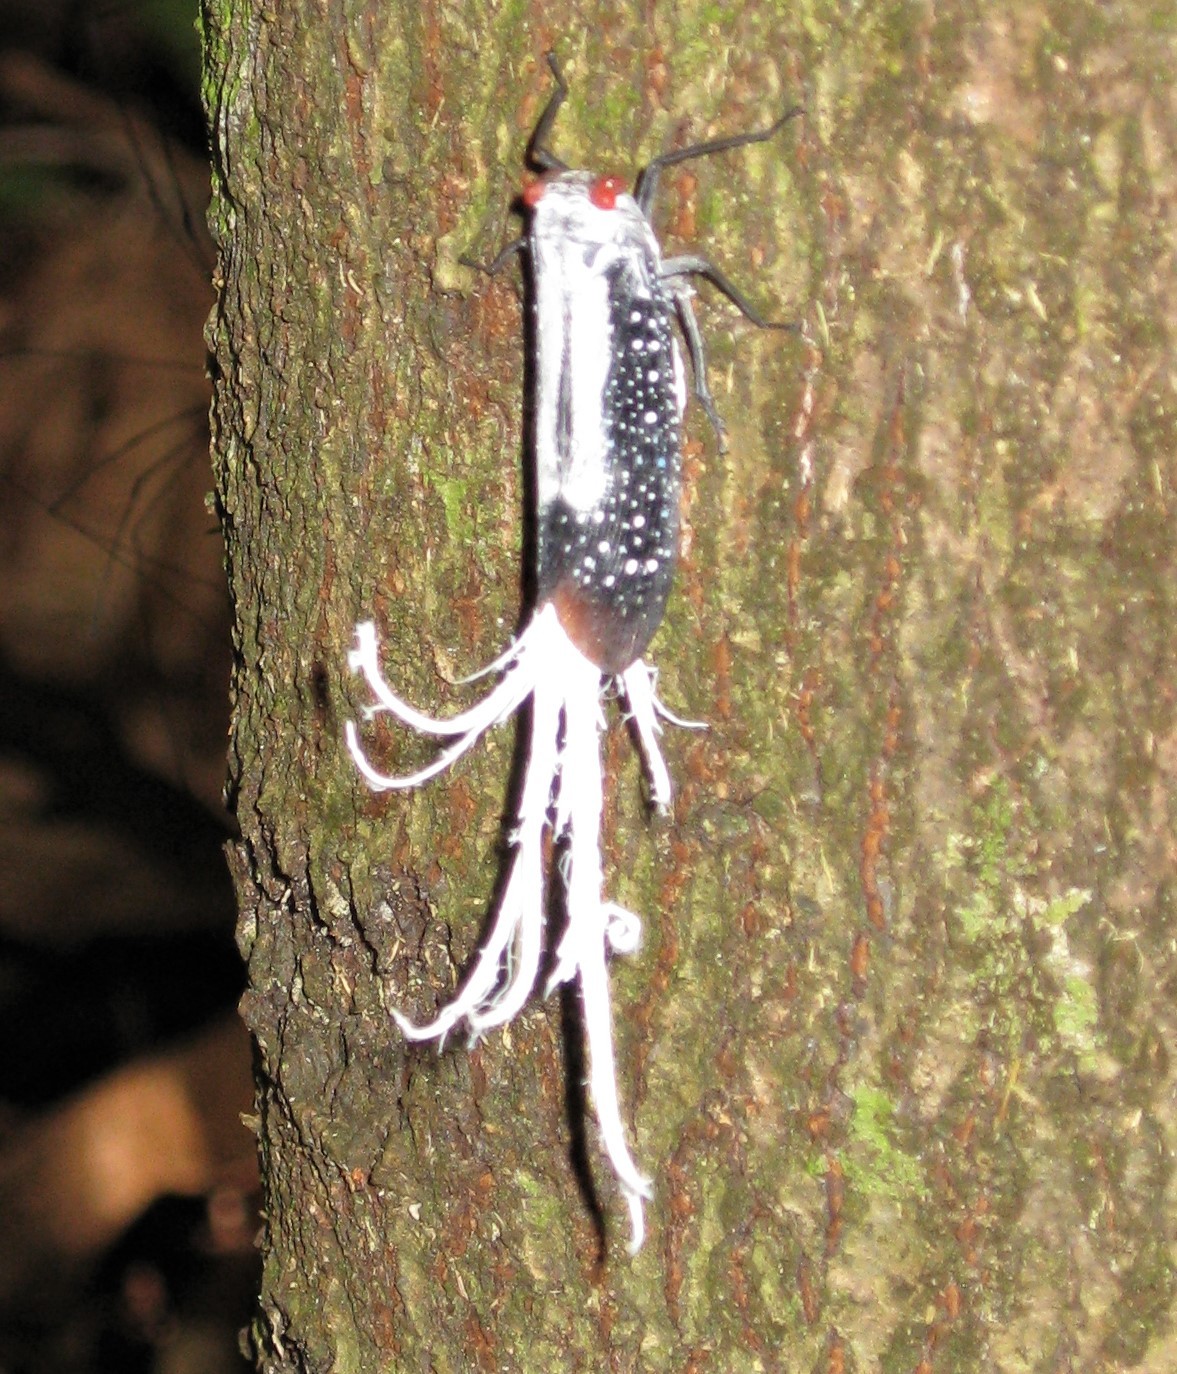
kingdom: Animalia
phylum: Arthropoda
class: Insecta
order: Hemiptera
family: Fulgoridae
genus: Lystra
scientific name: Lystra lanata
